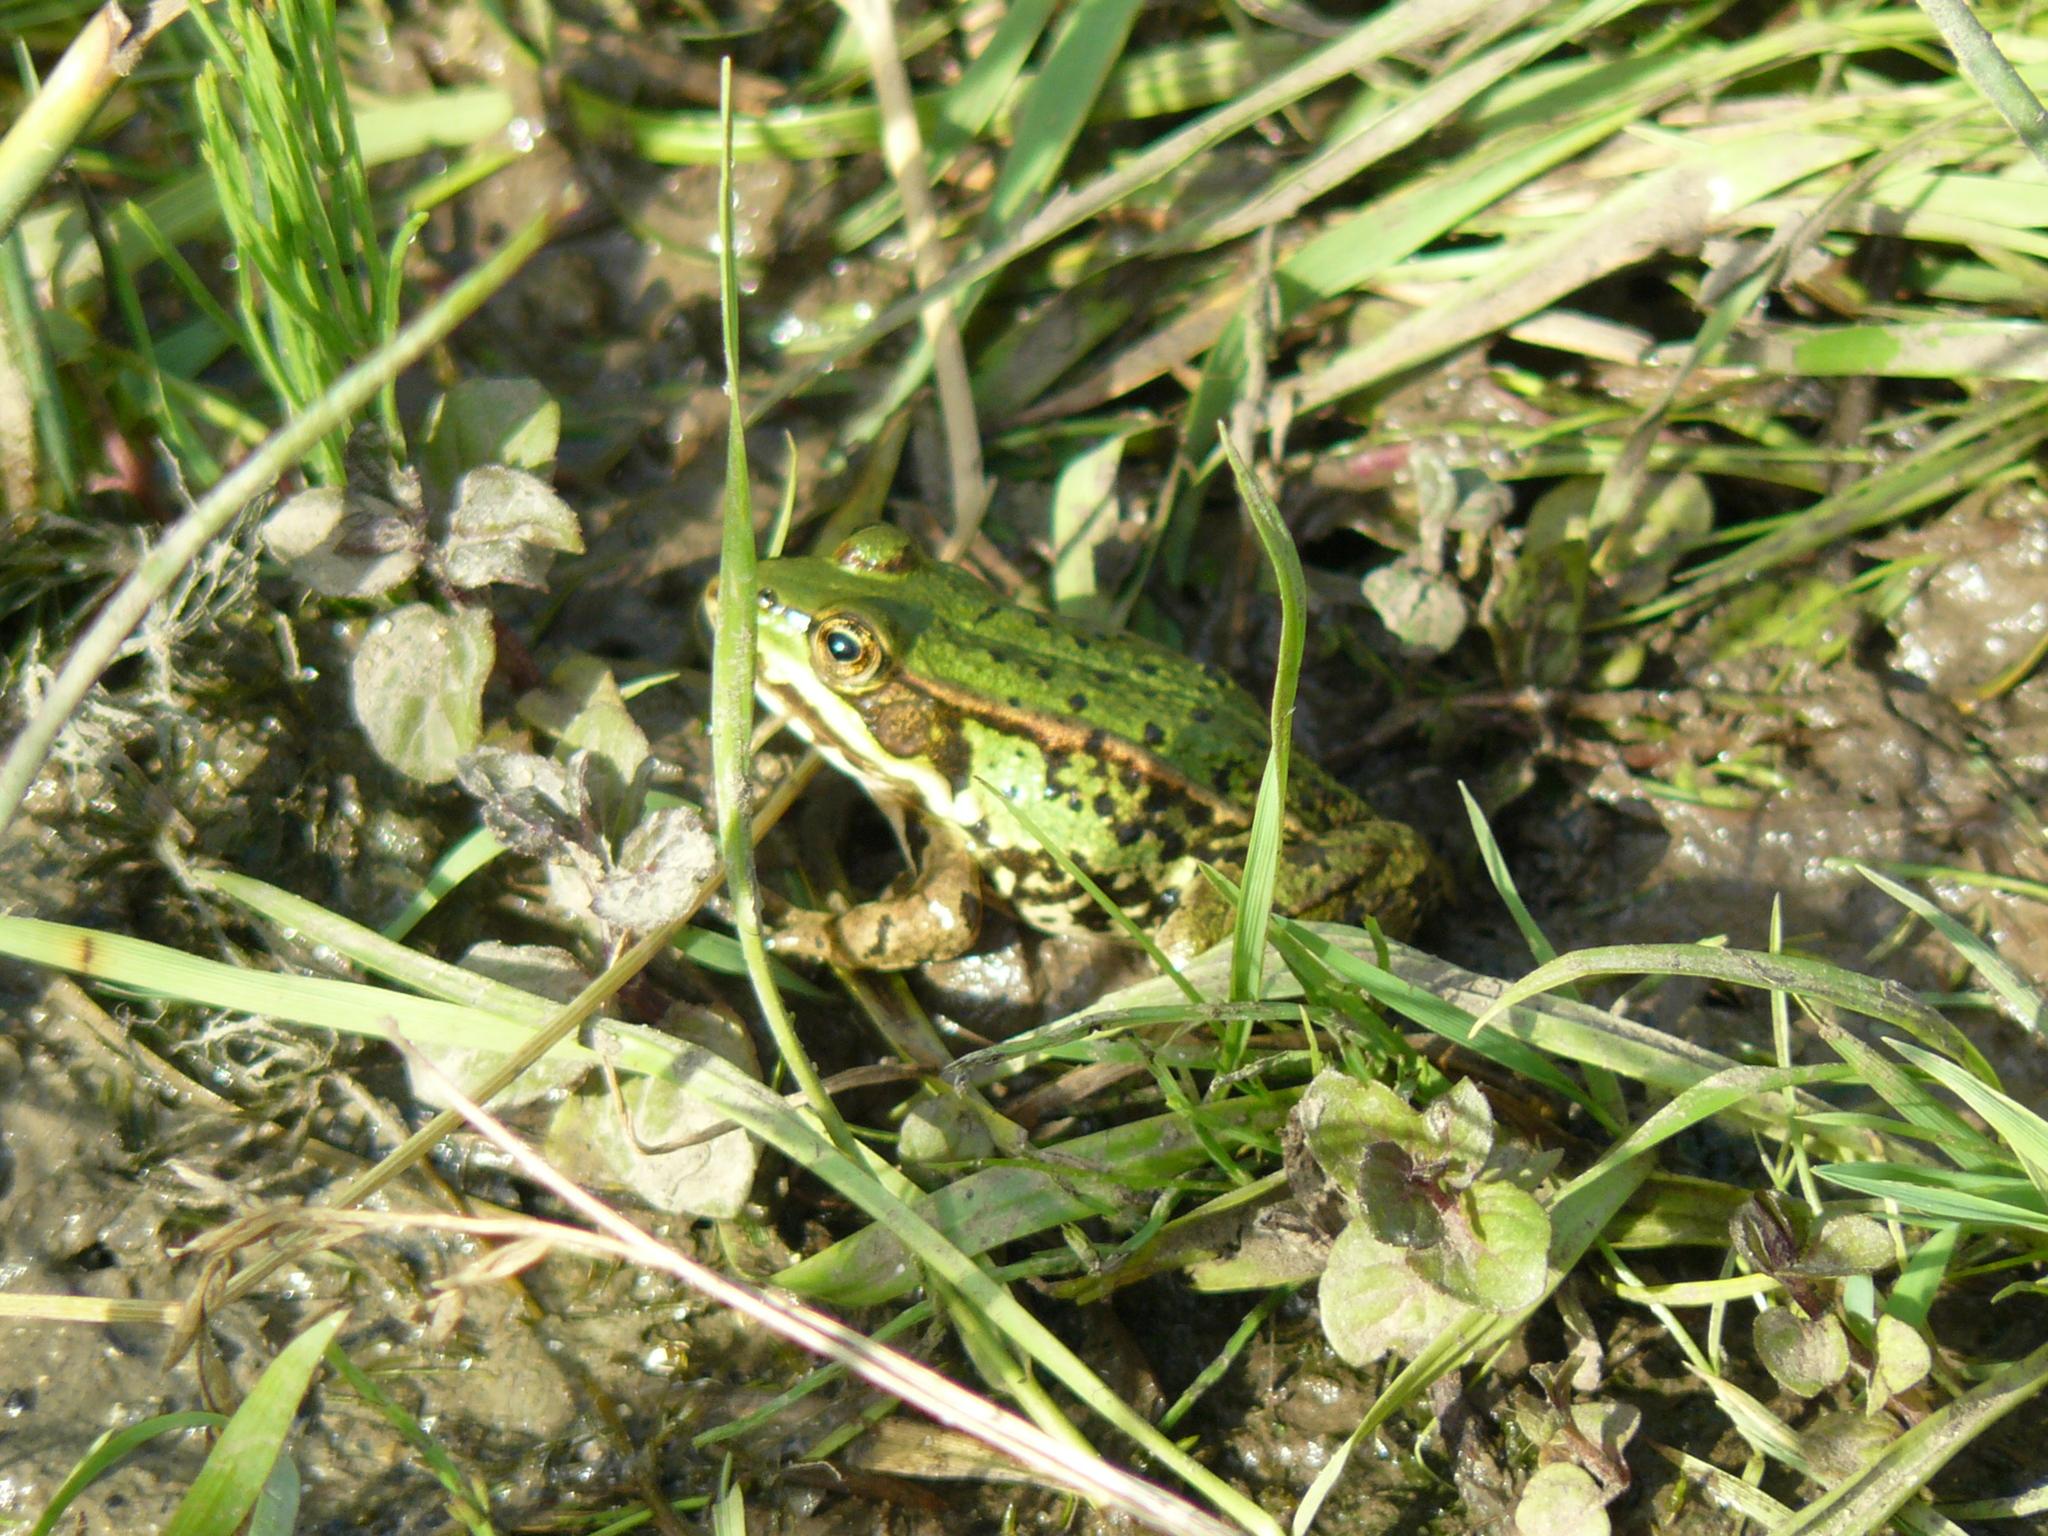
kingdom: Animalia
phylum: Chordata
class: Amphibia
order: Anura
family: Ranidae
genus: Pelophylax
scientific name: Pelophylax
